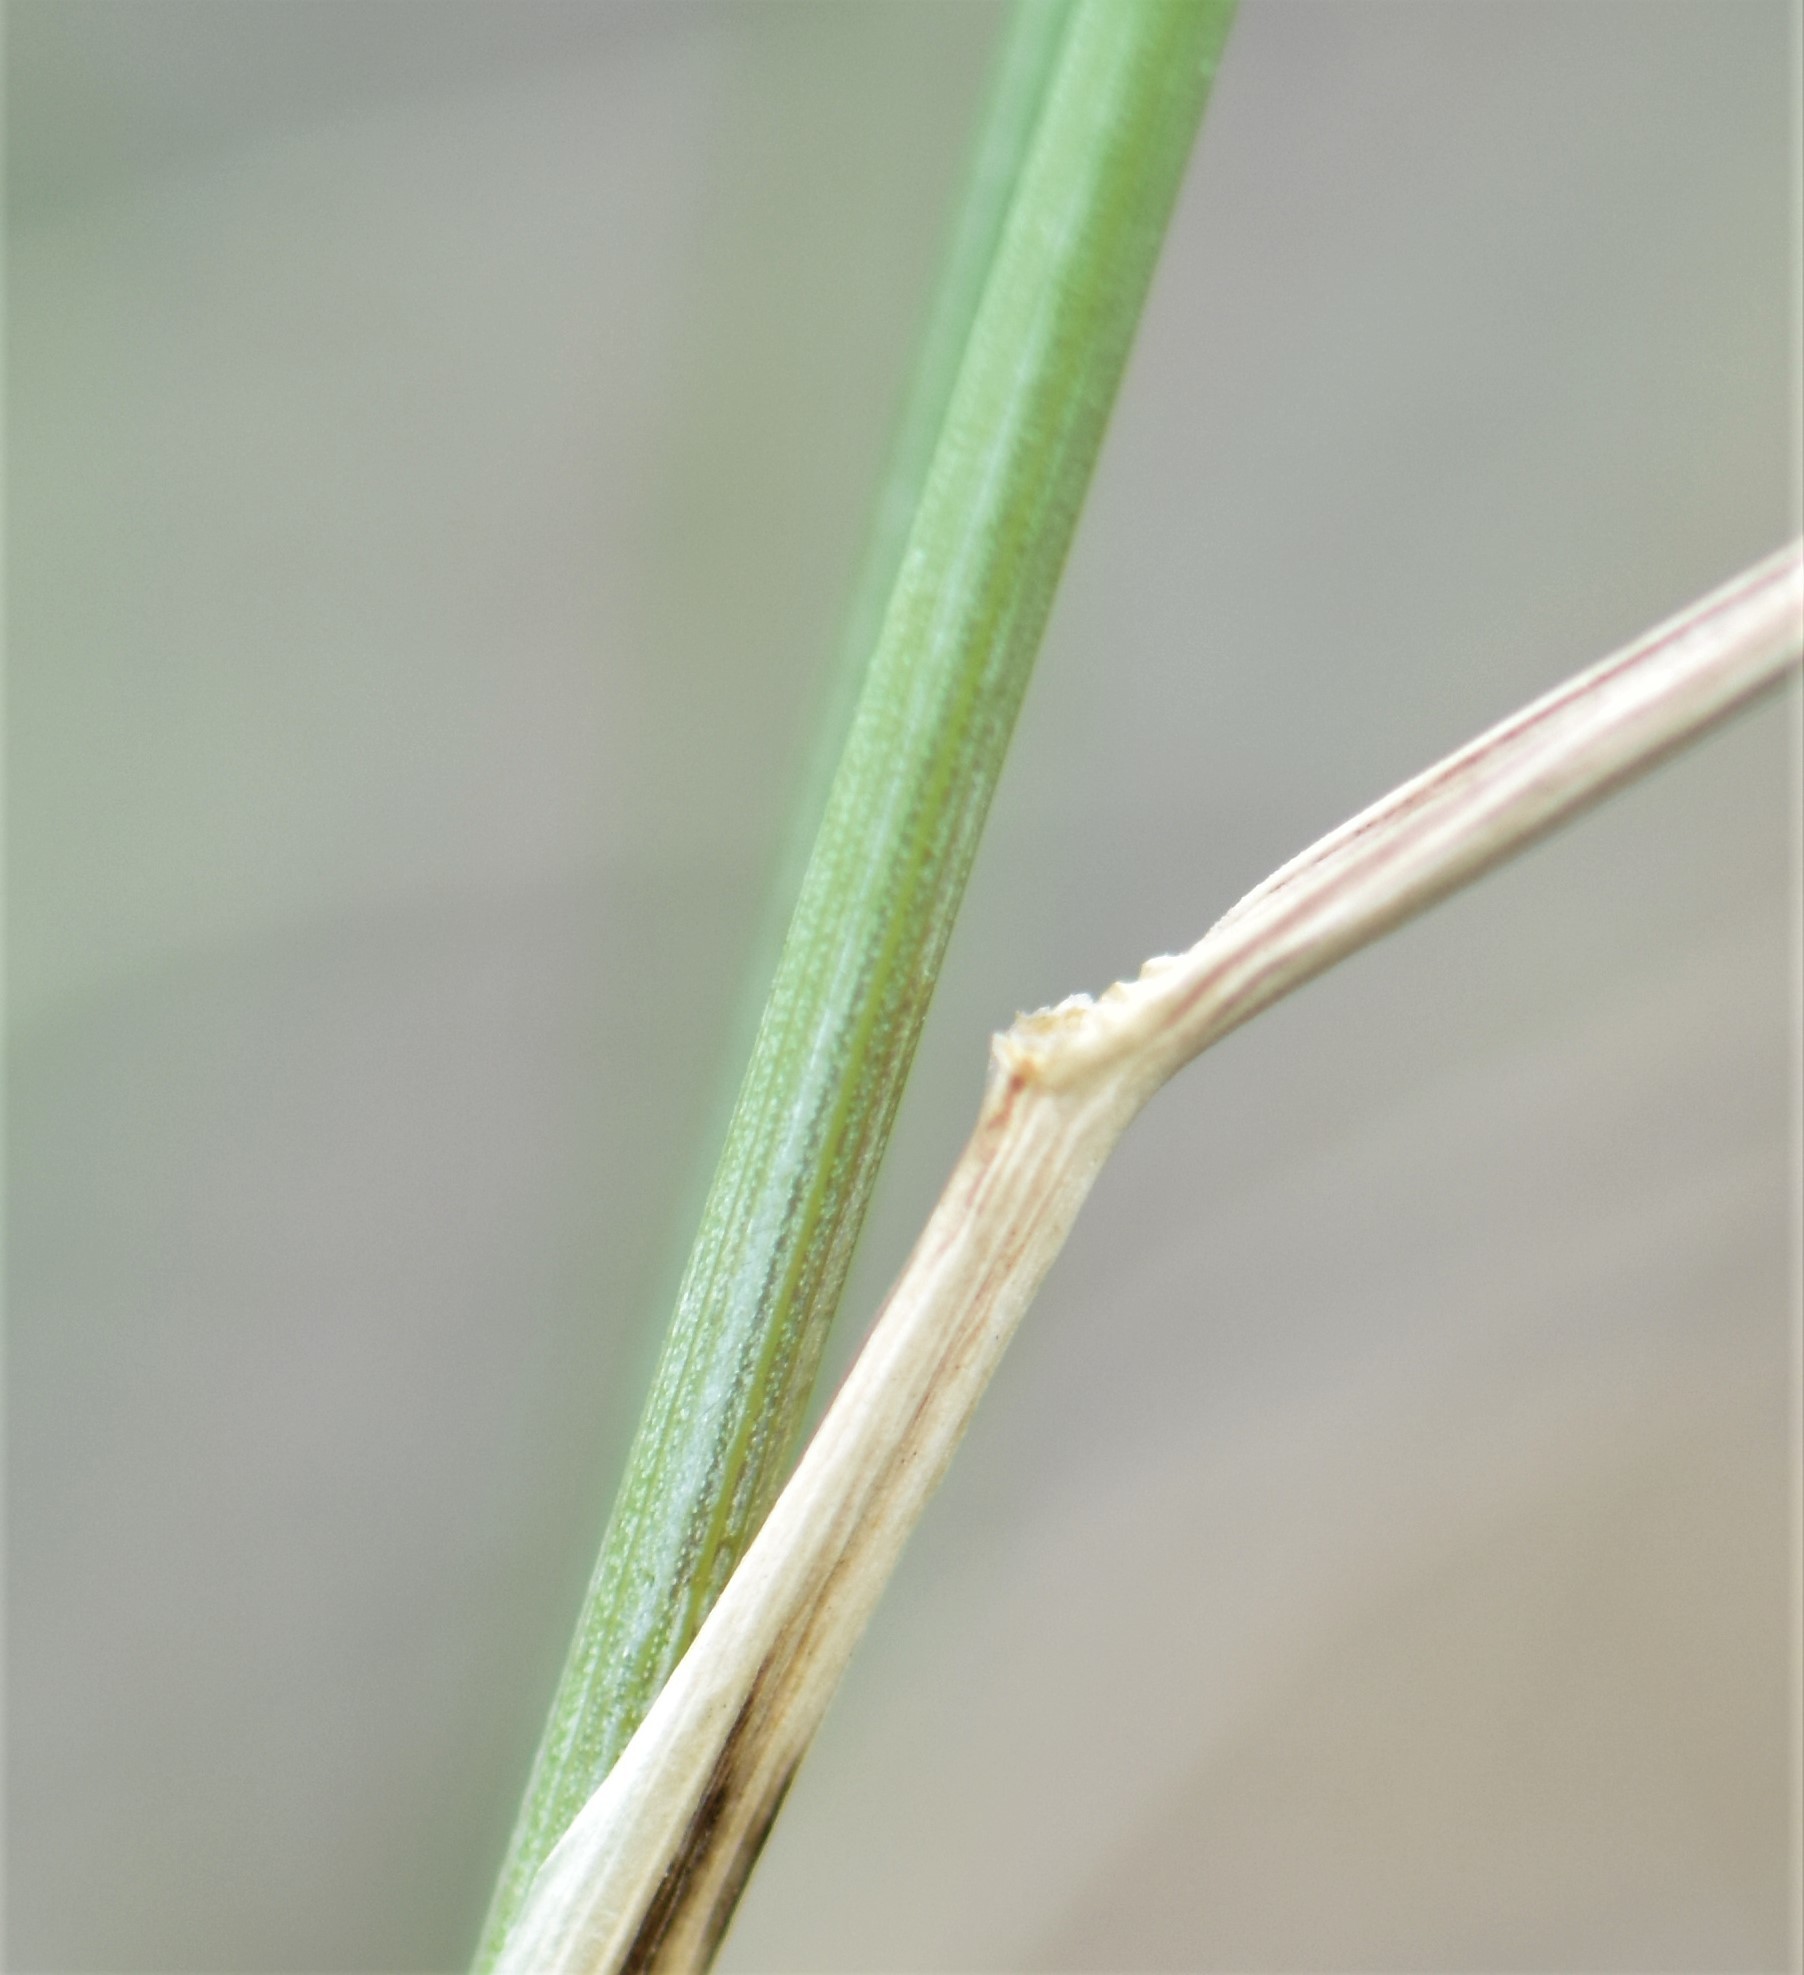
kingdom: Plantae
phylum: Tracheophyta
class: Liliopsida
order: Poales
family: Poaceae
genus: Elymus
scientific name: Elymus lanceolatus
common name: Thick-spike wheatgrass
